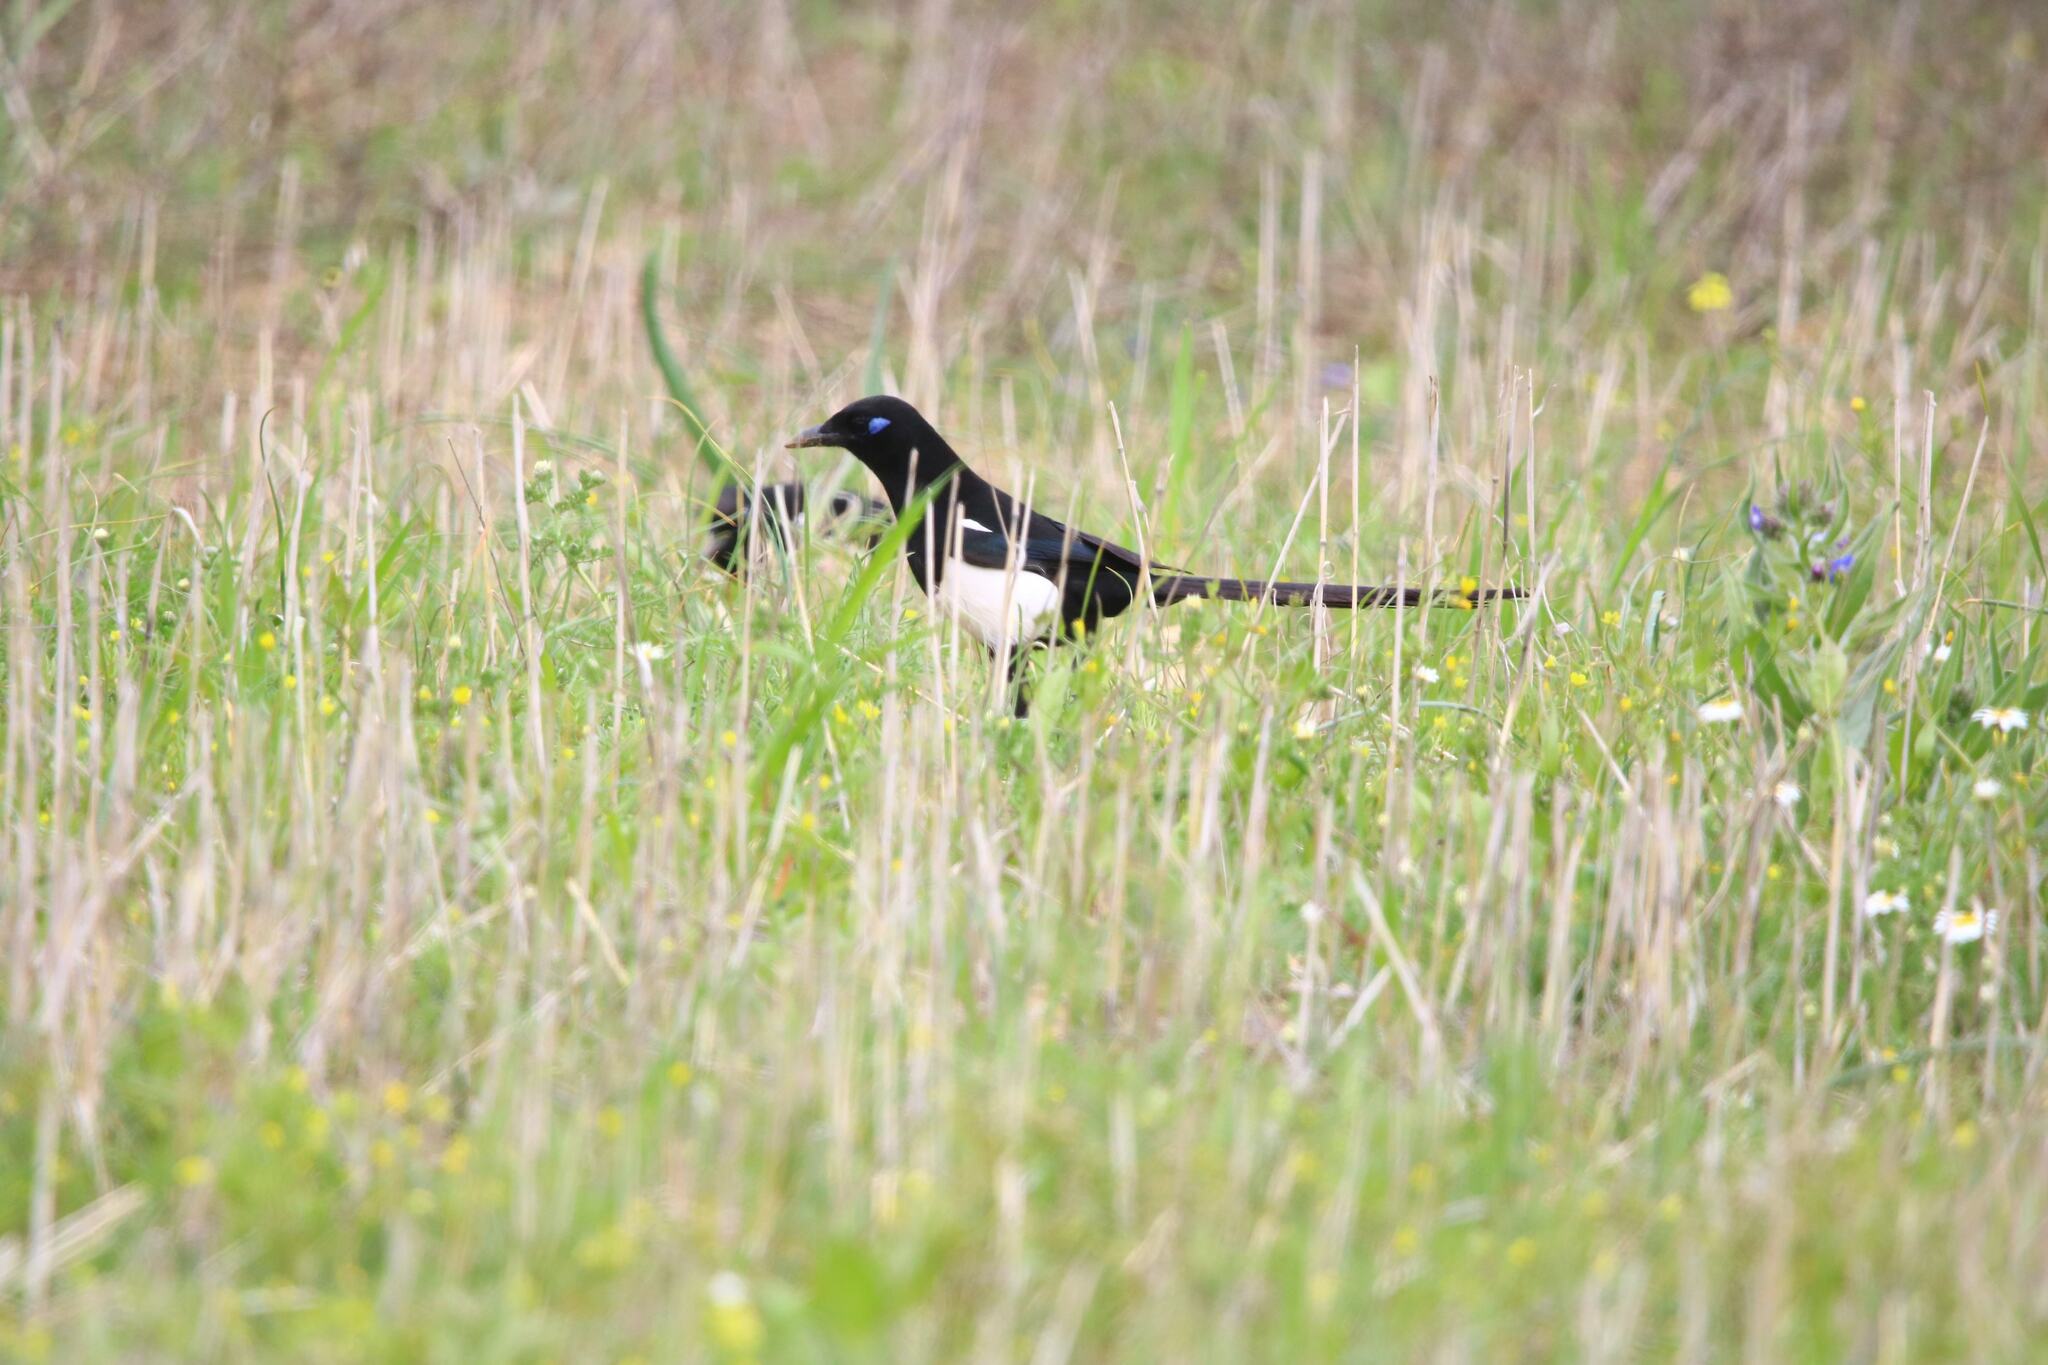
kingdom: Animalia
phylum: Chordata
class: Aves
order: Passeriformes
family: Corvidae
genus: Pica
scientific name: Pica mauritanica
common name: Maghreb magpie
